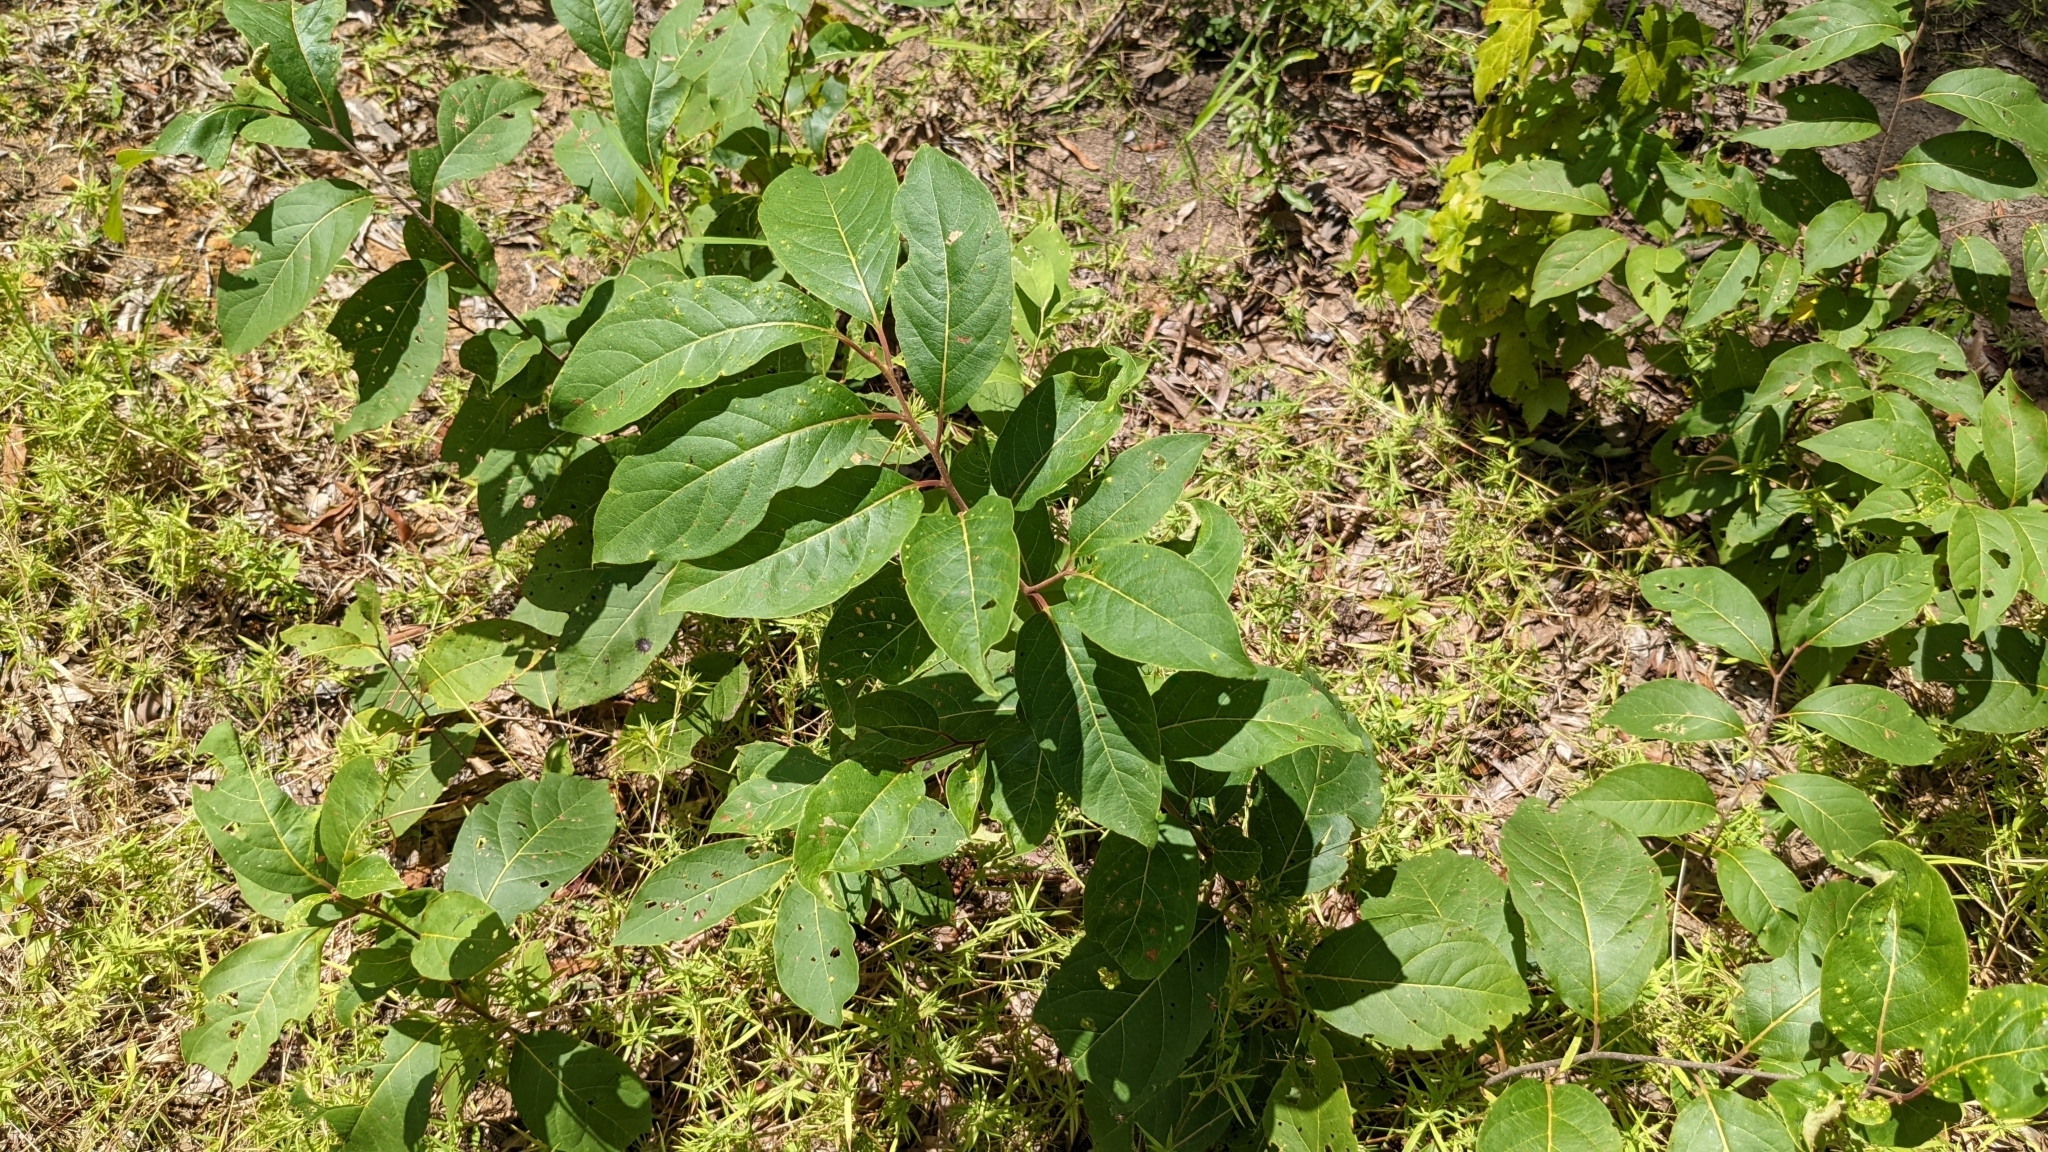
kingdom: Plantae
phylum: Tracheophyta
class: Magnoliopsida
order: Ericales
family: Ebenaceae
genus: Diospyros
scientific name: Diospyros virginiana
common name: Persimmon
